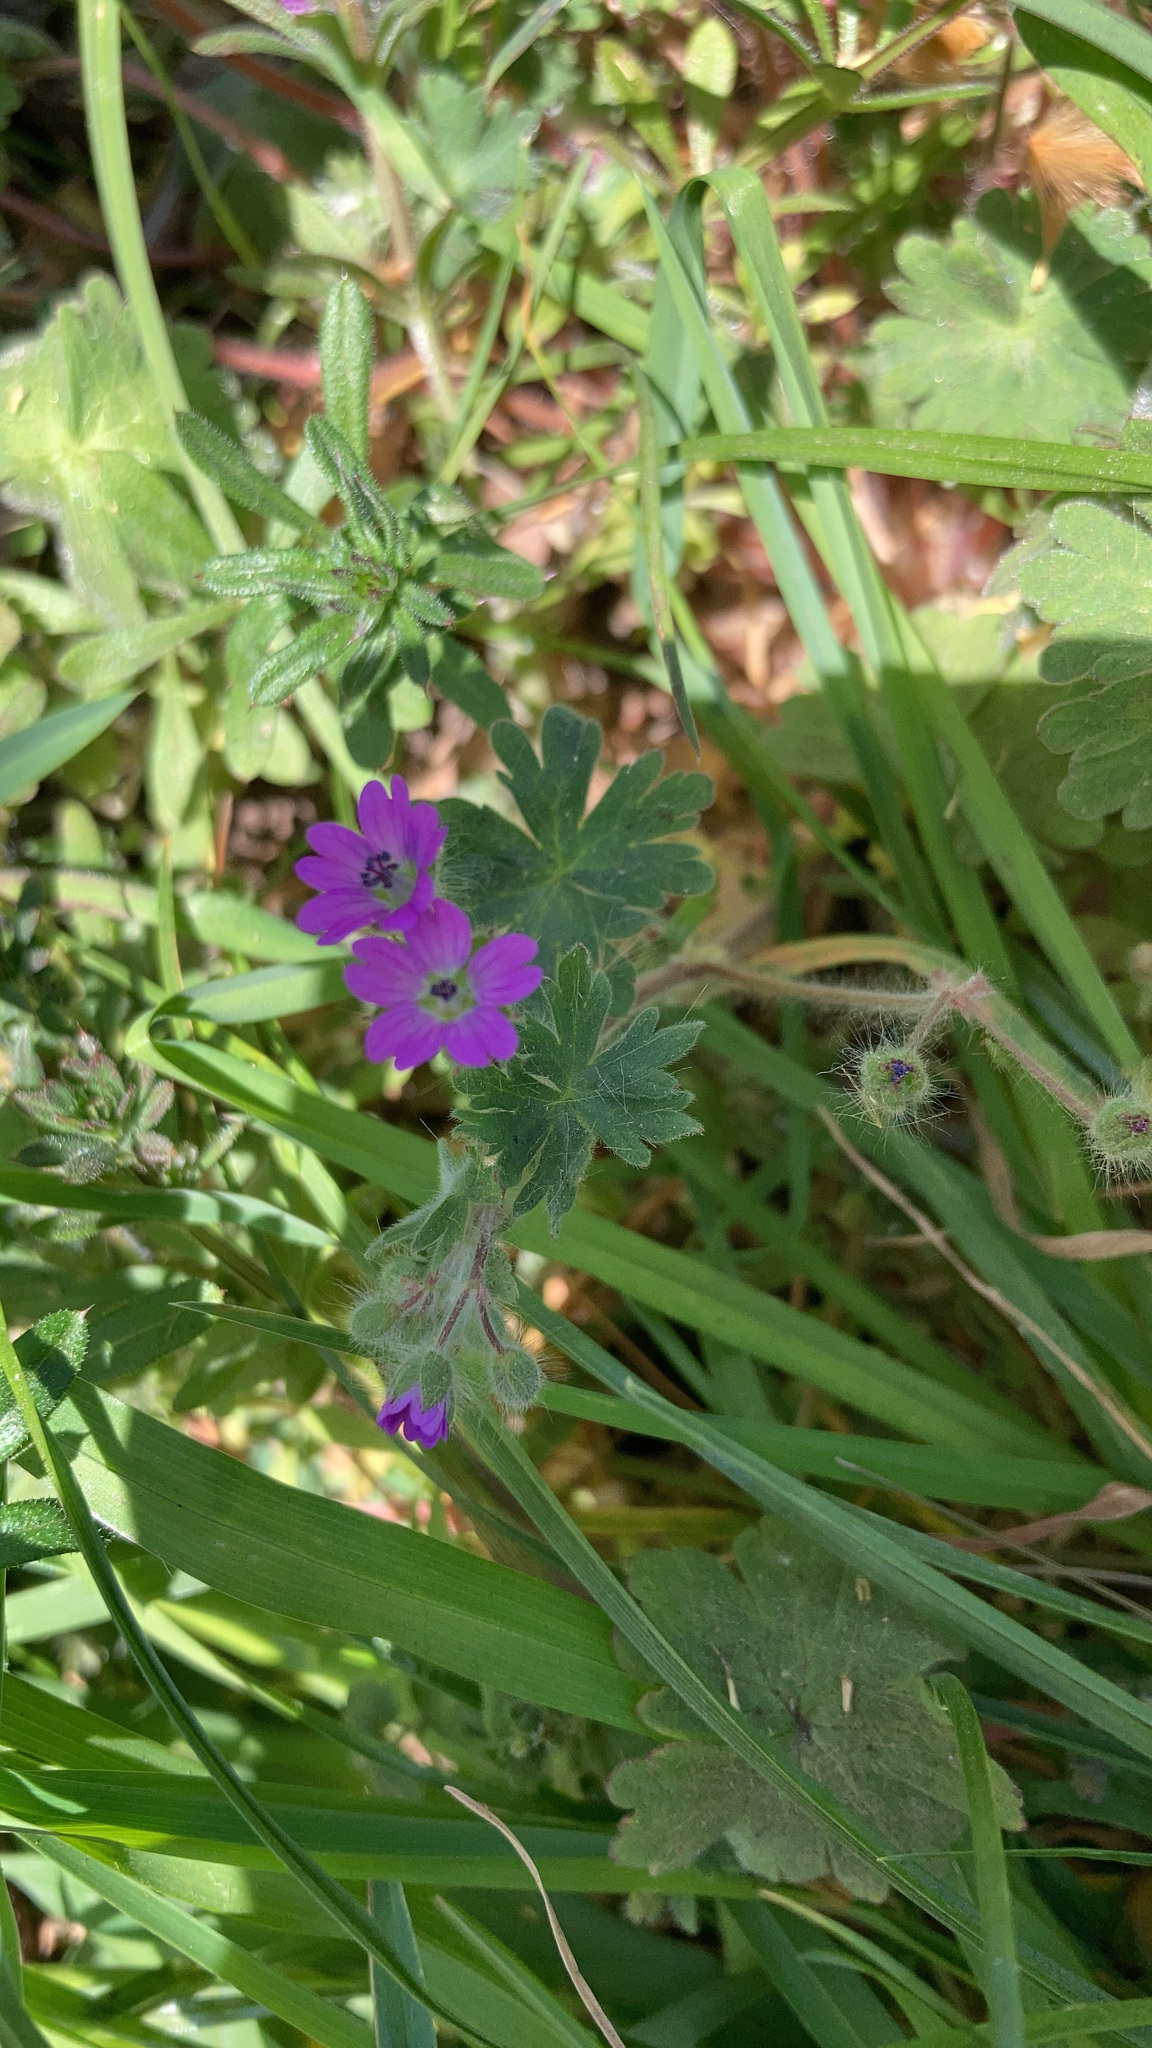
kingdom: Plantae
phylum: Tracheophyta
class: Magnoliopsida
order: Geraniales
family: Geraniaceae
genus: Geranium
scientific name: Geranium molle
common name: Dove's-foot crane's-bill
